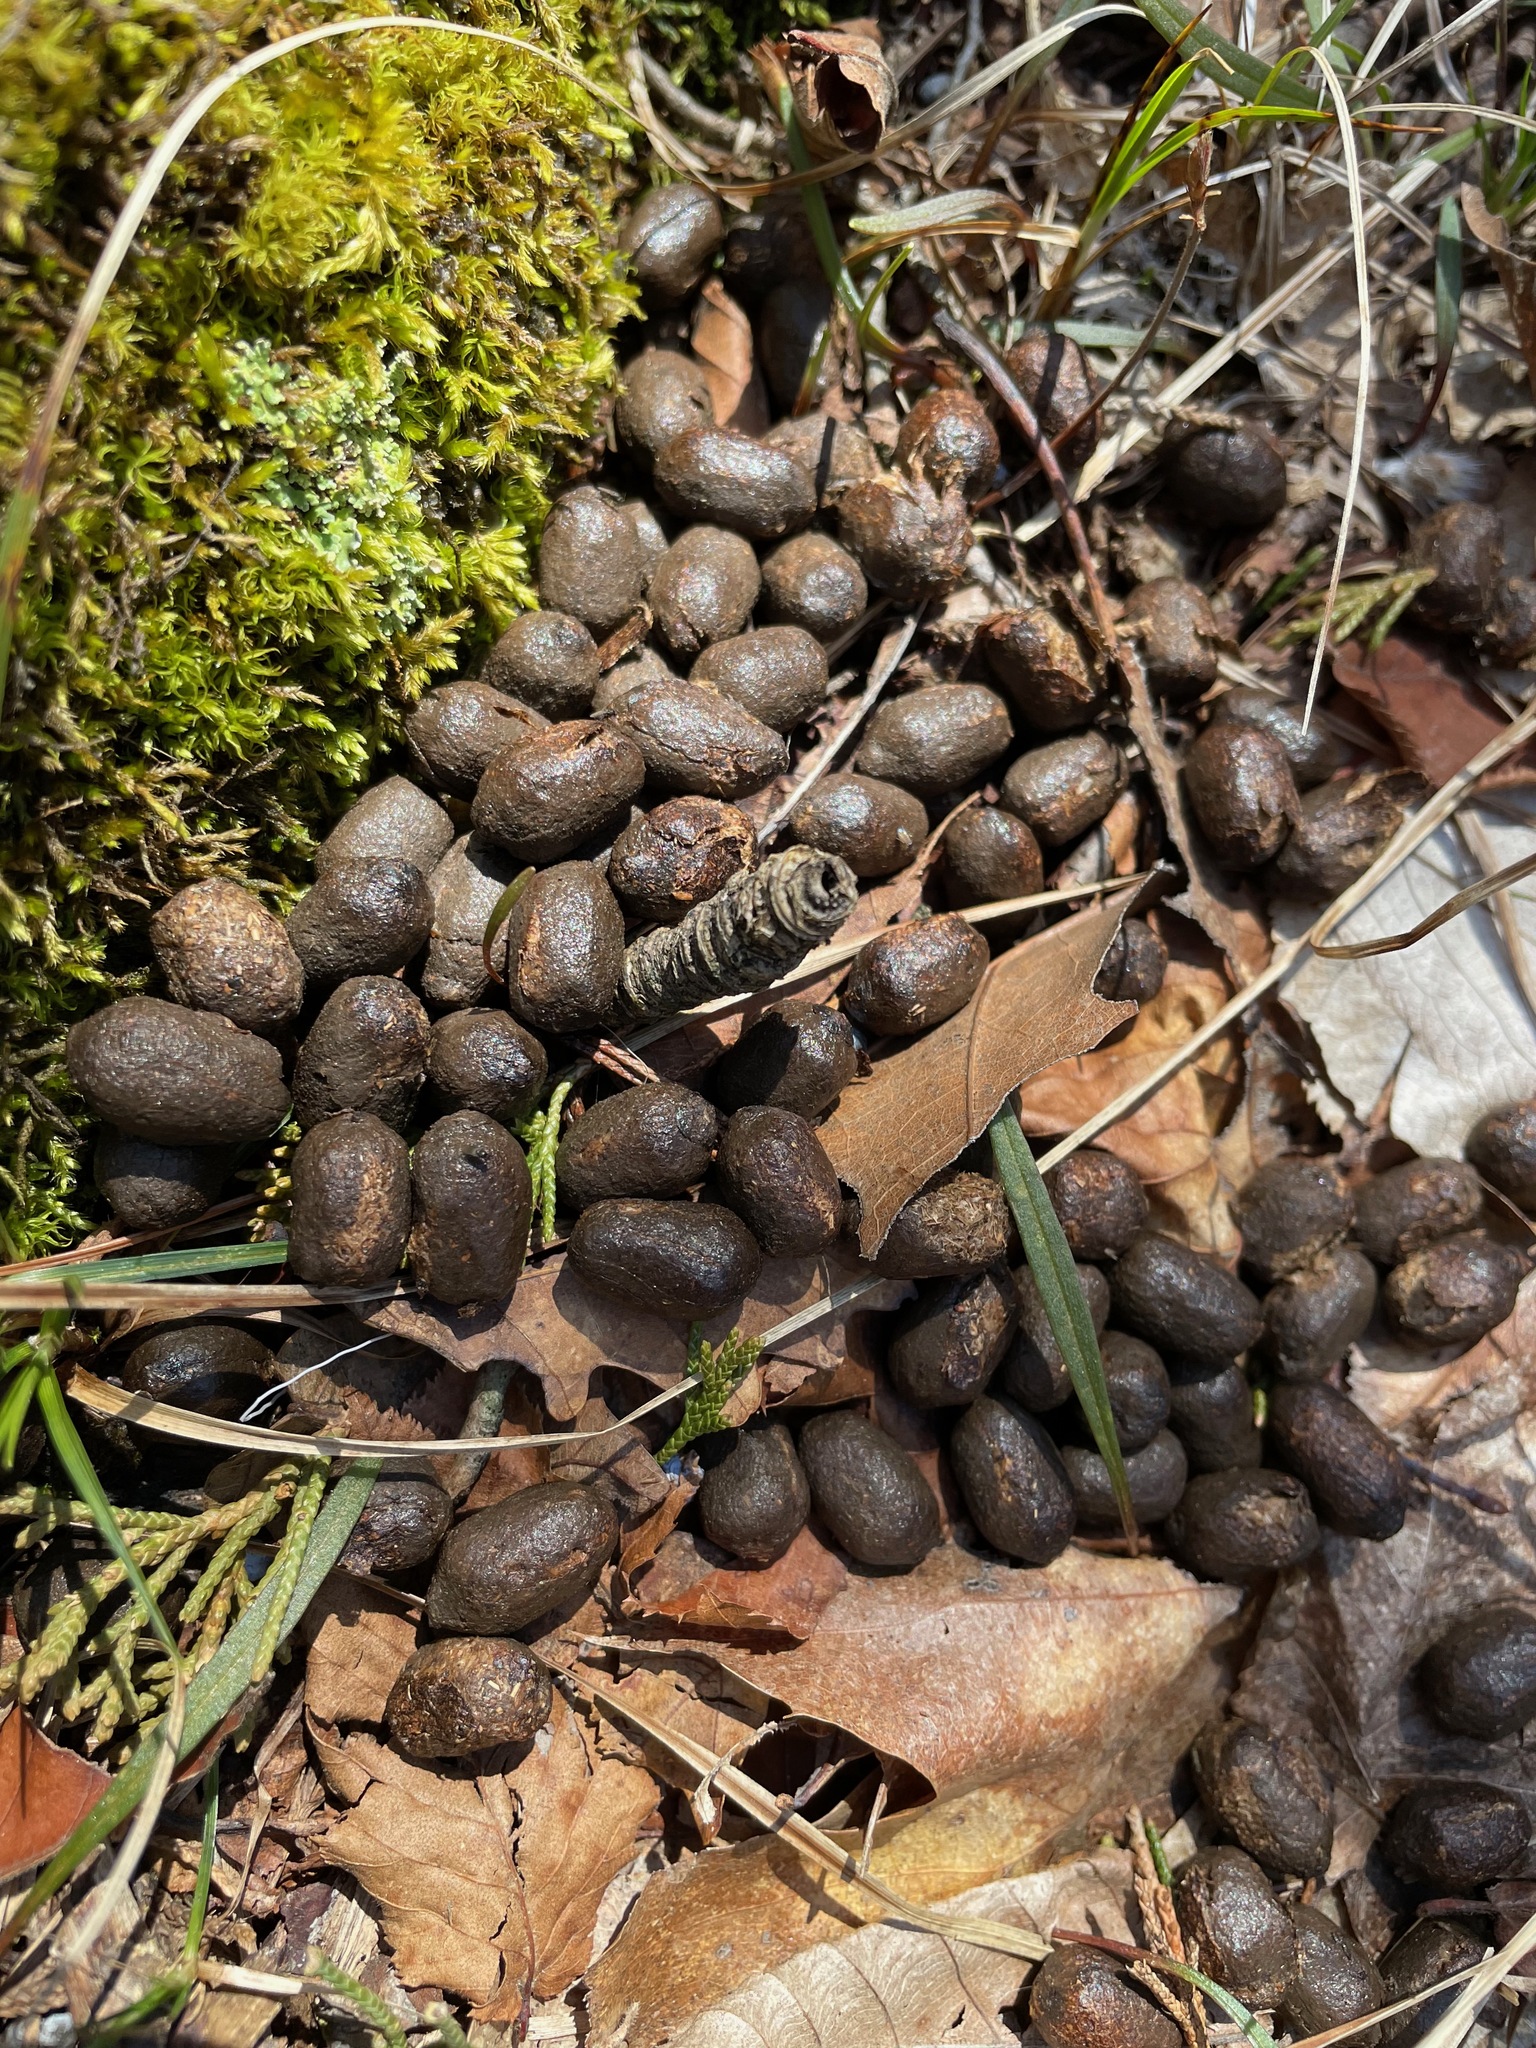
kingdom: Animalia
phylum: Chordata
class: Mammalia
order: Artiodactyla
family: Cervidae
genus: Odocoileus
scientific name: Odocoileus virginianus
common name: White-tailed deer
